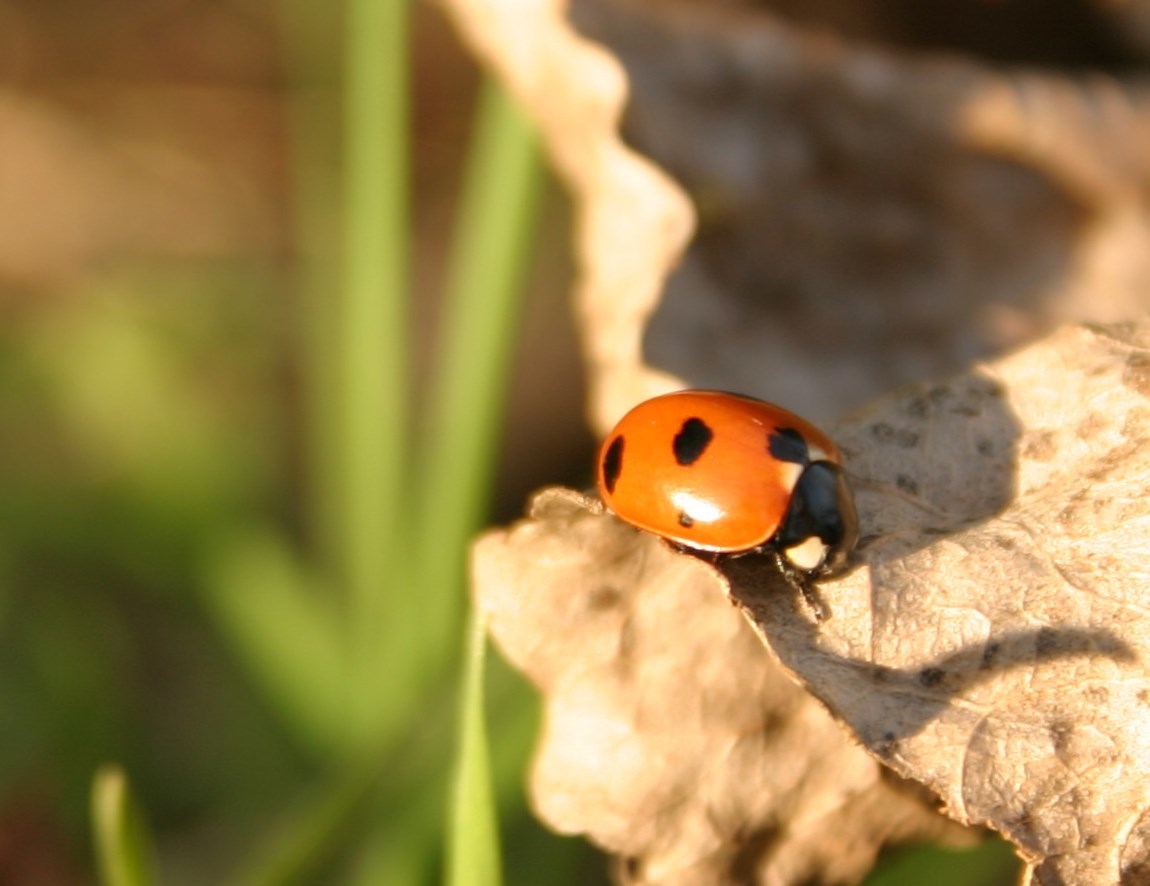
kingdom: Animalia
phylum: Arthropoda
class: Insecta
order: Coleoptera
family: Coccinellidae
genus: Coccinella
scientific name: Coccinella magnifica
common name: Scarce 7-spot ladybird
